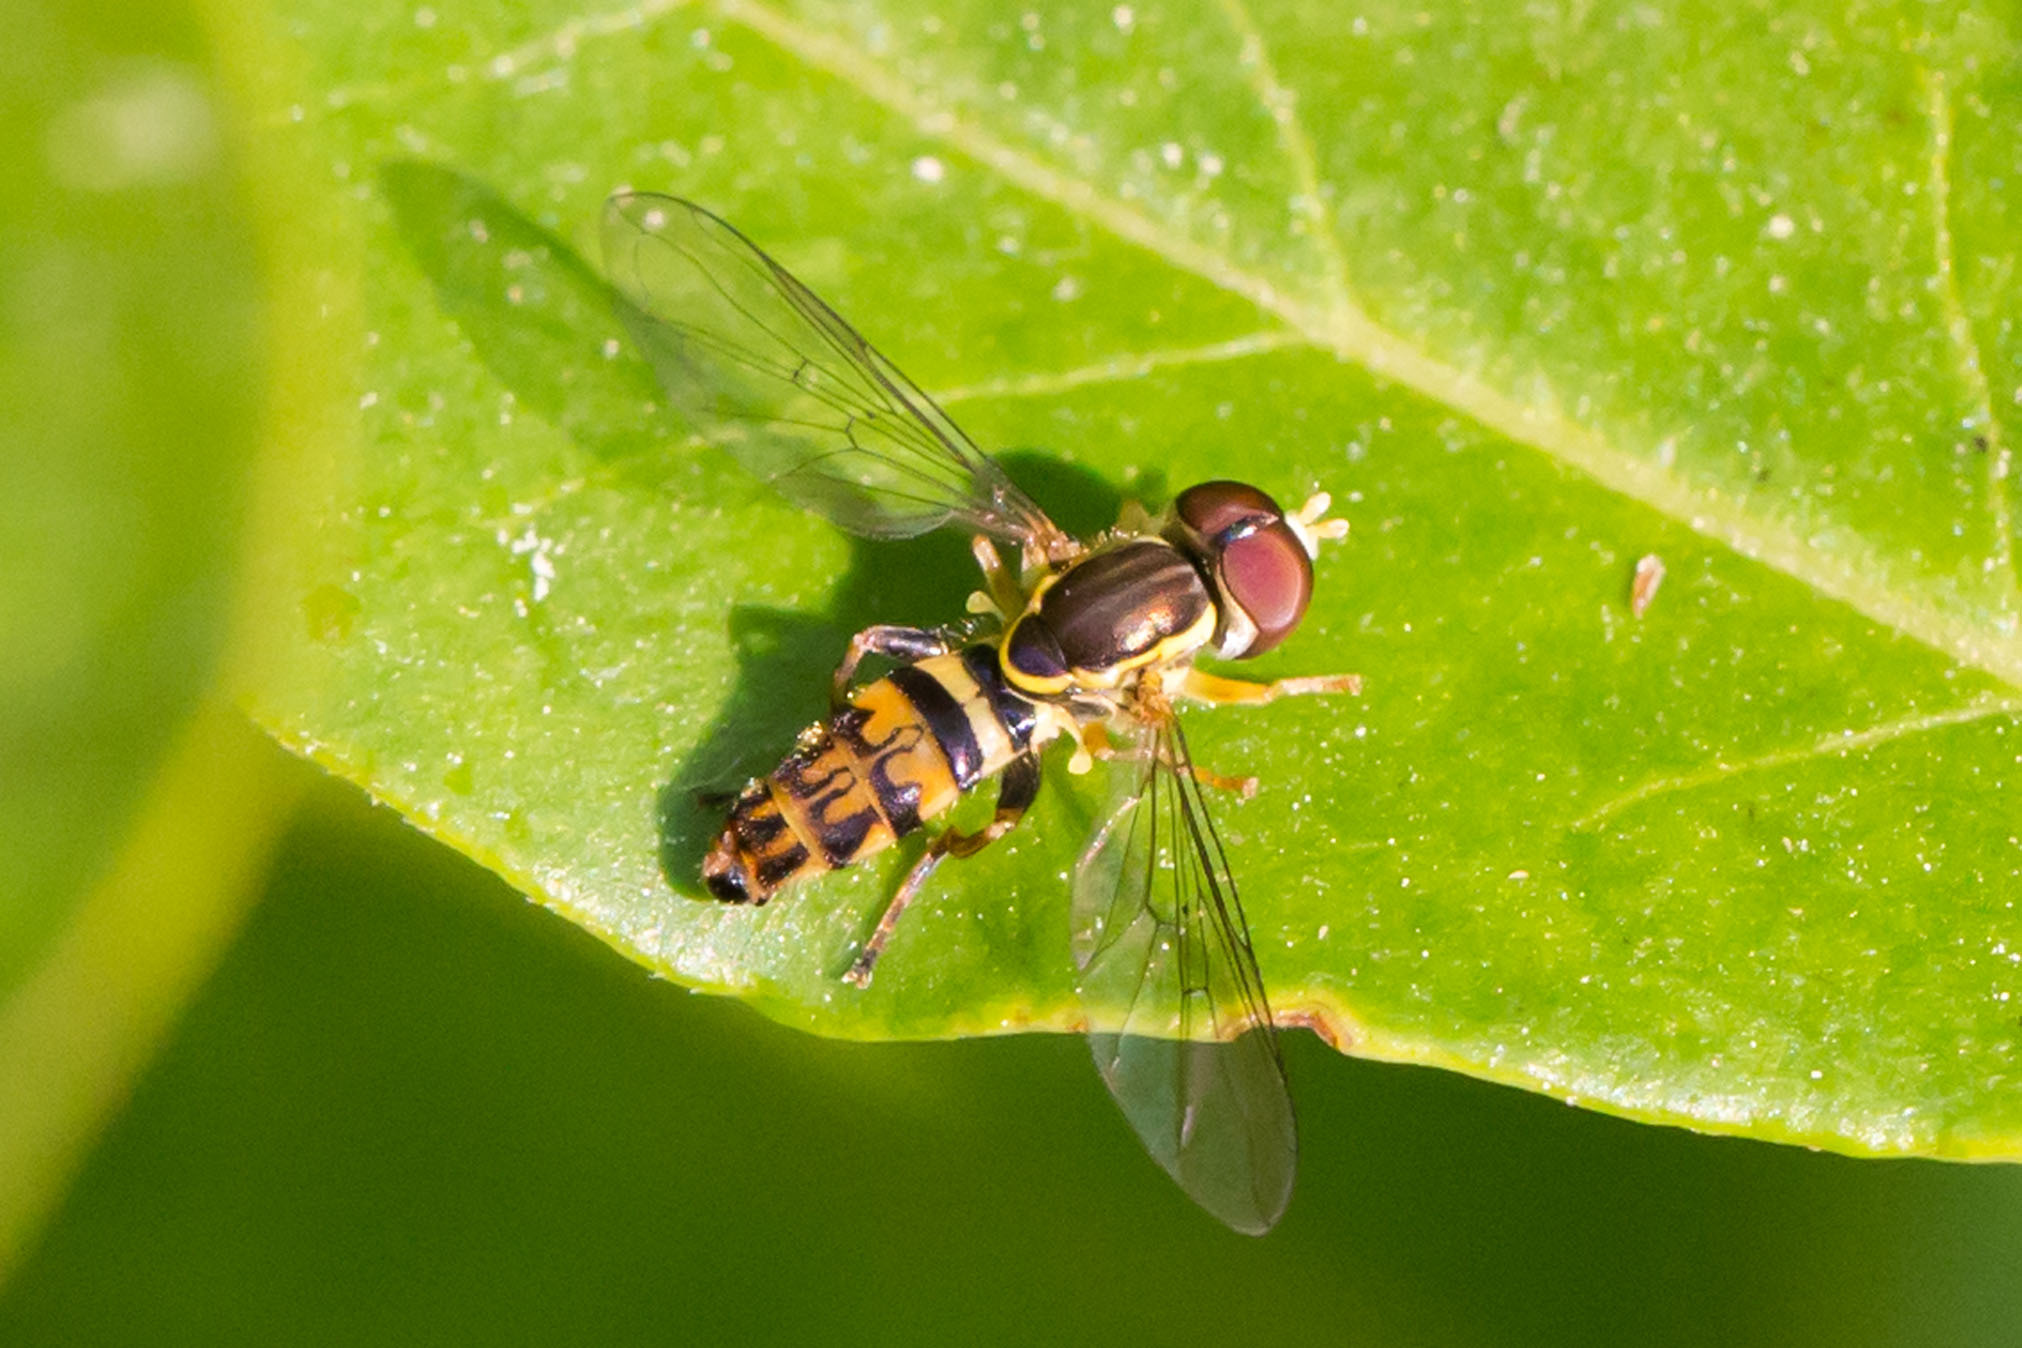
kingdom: Animalia
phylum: Arthropoda
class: Insecta
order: Diptera
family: Syrphidae
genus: Toxomerus
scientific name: Toxomerus geminatus
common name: Eastern calligrapher
